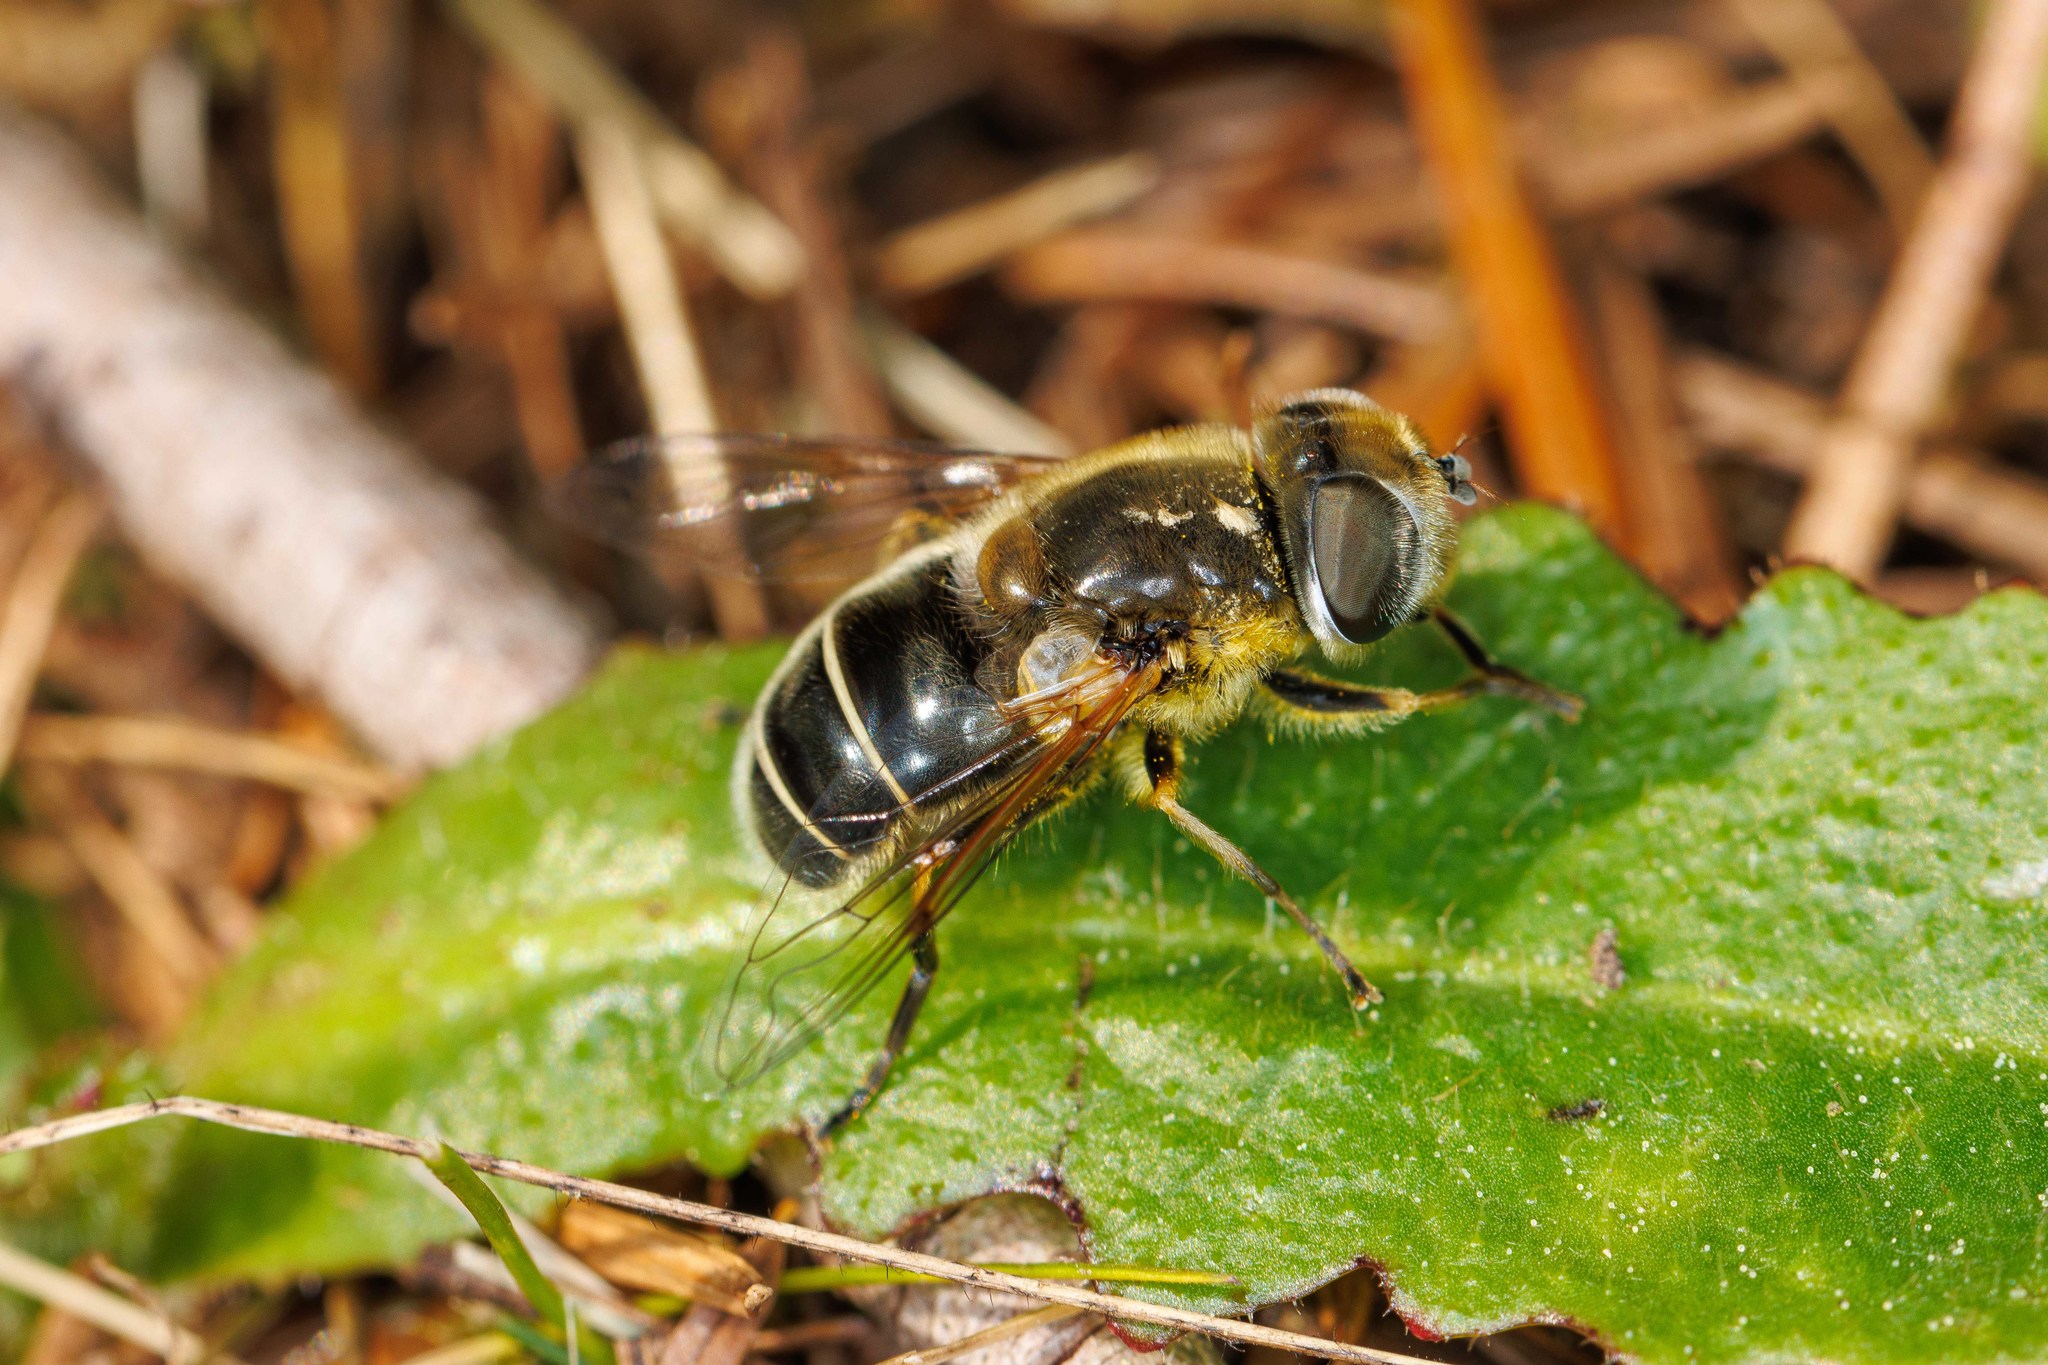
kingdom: Animalia
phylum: Arthropoda
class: Insecta
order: Diptera
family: Syrphidae
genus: Eristalis
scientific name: Eristalis hirta
